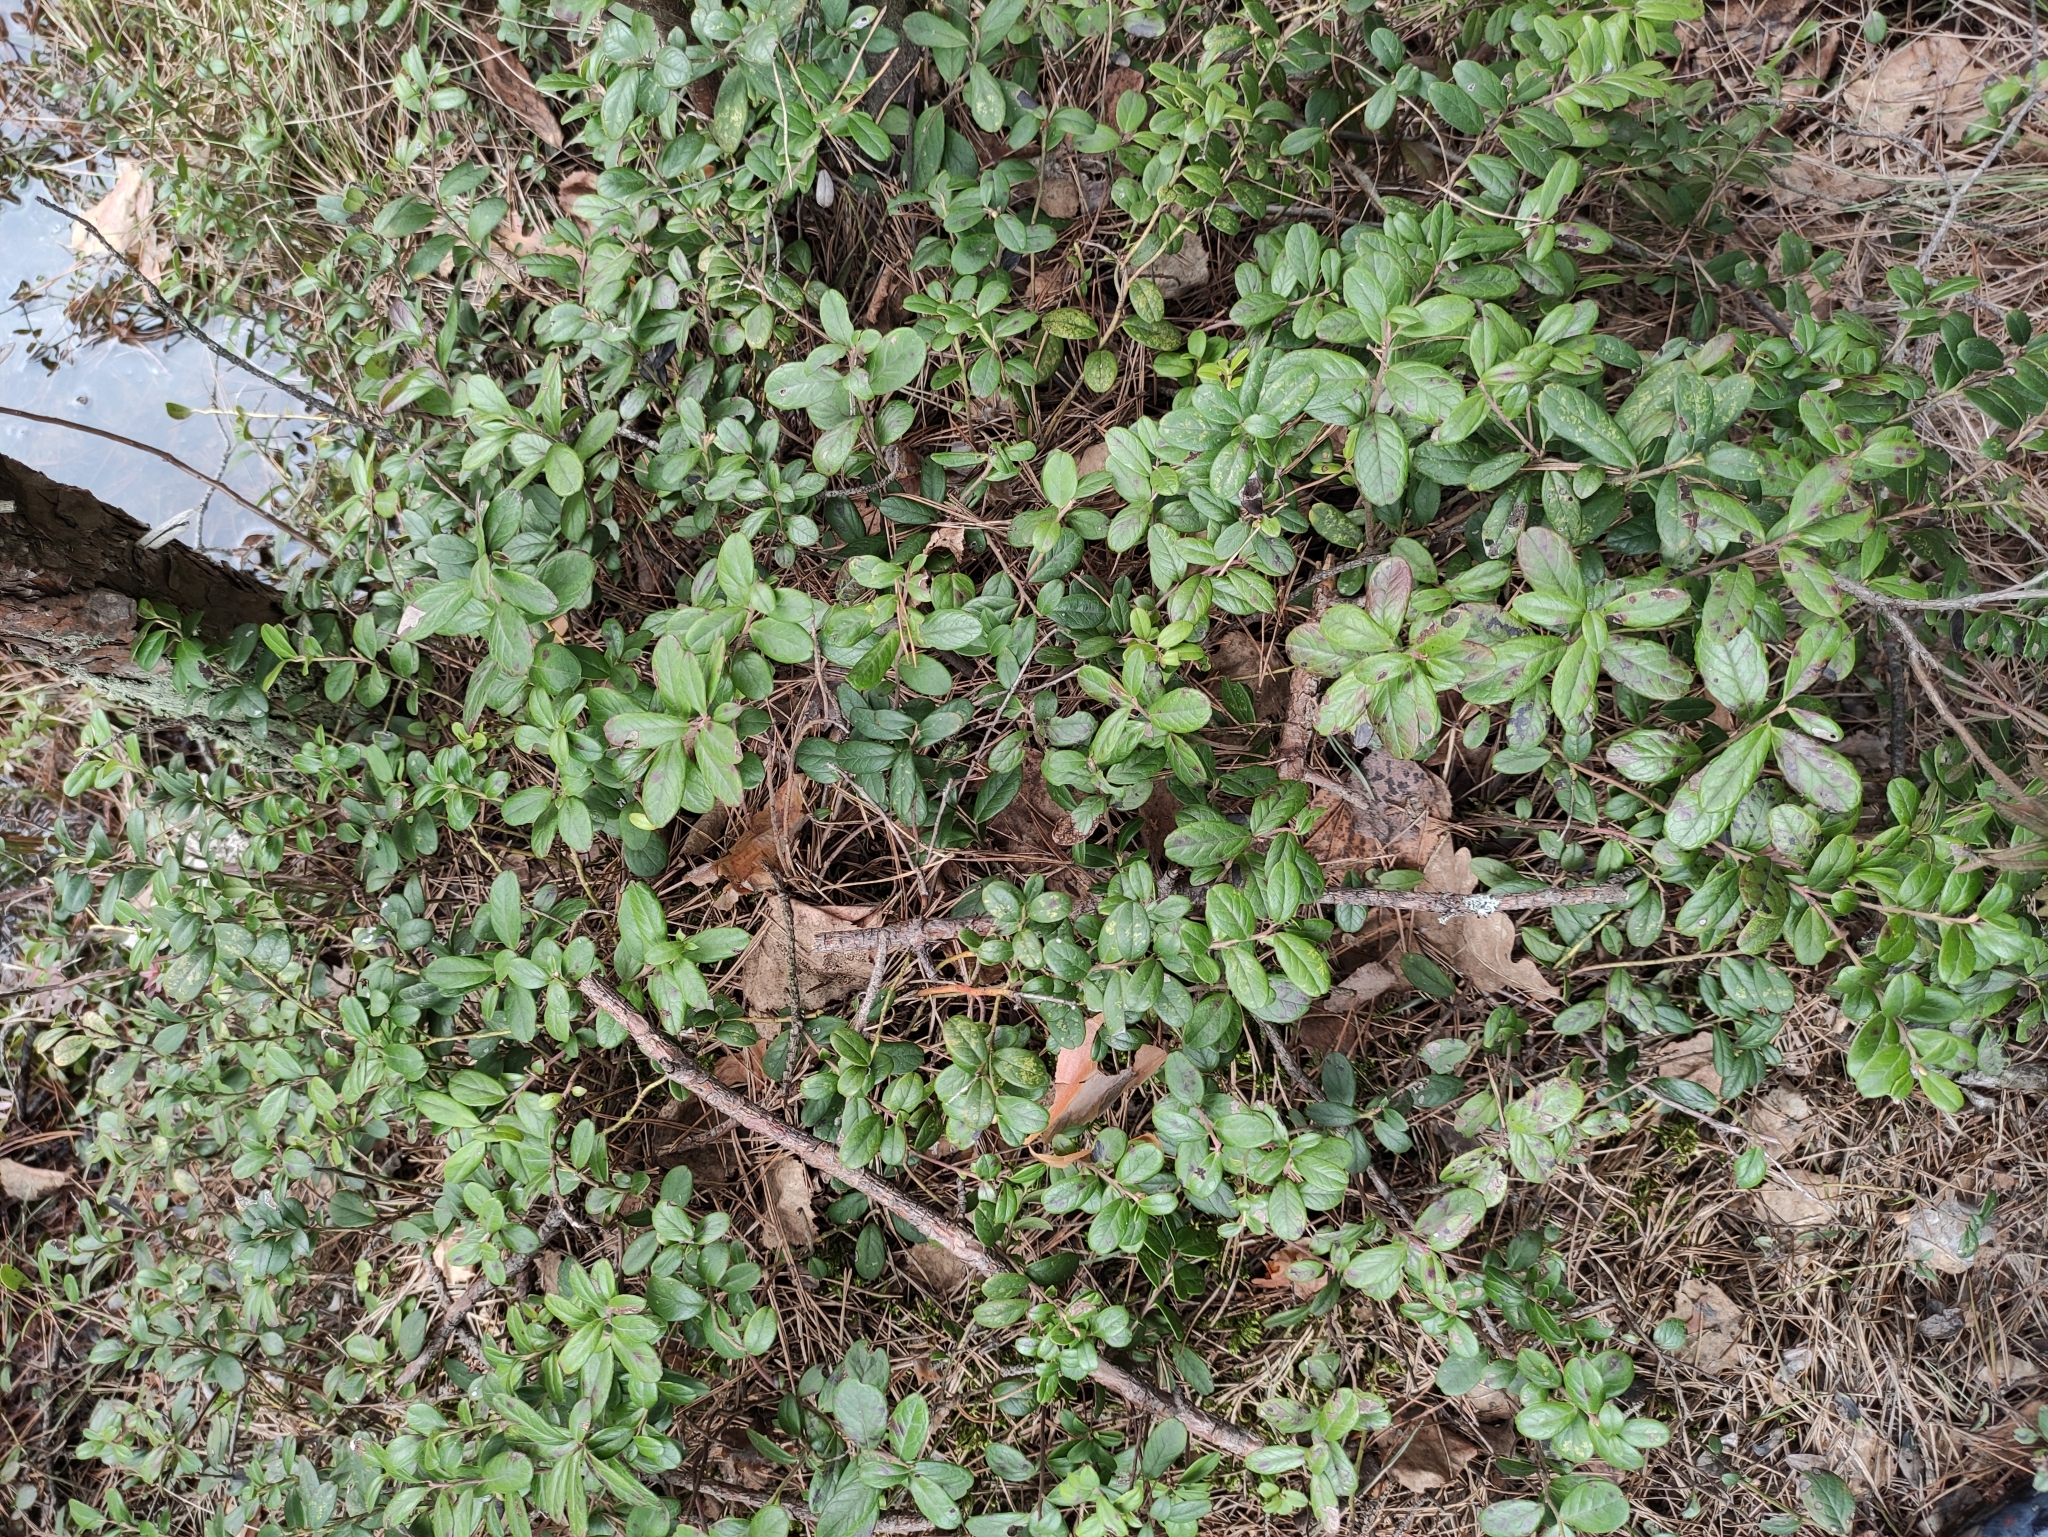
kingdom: Plantae
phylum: Tracheophyta
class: Magnoliopsida
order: Ericales
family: Ericaceae
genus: Vaccinium
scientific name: Vaccinium vitis-idaea
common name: Cowberry
